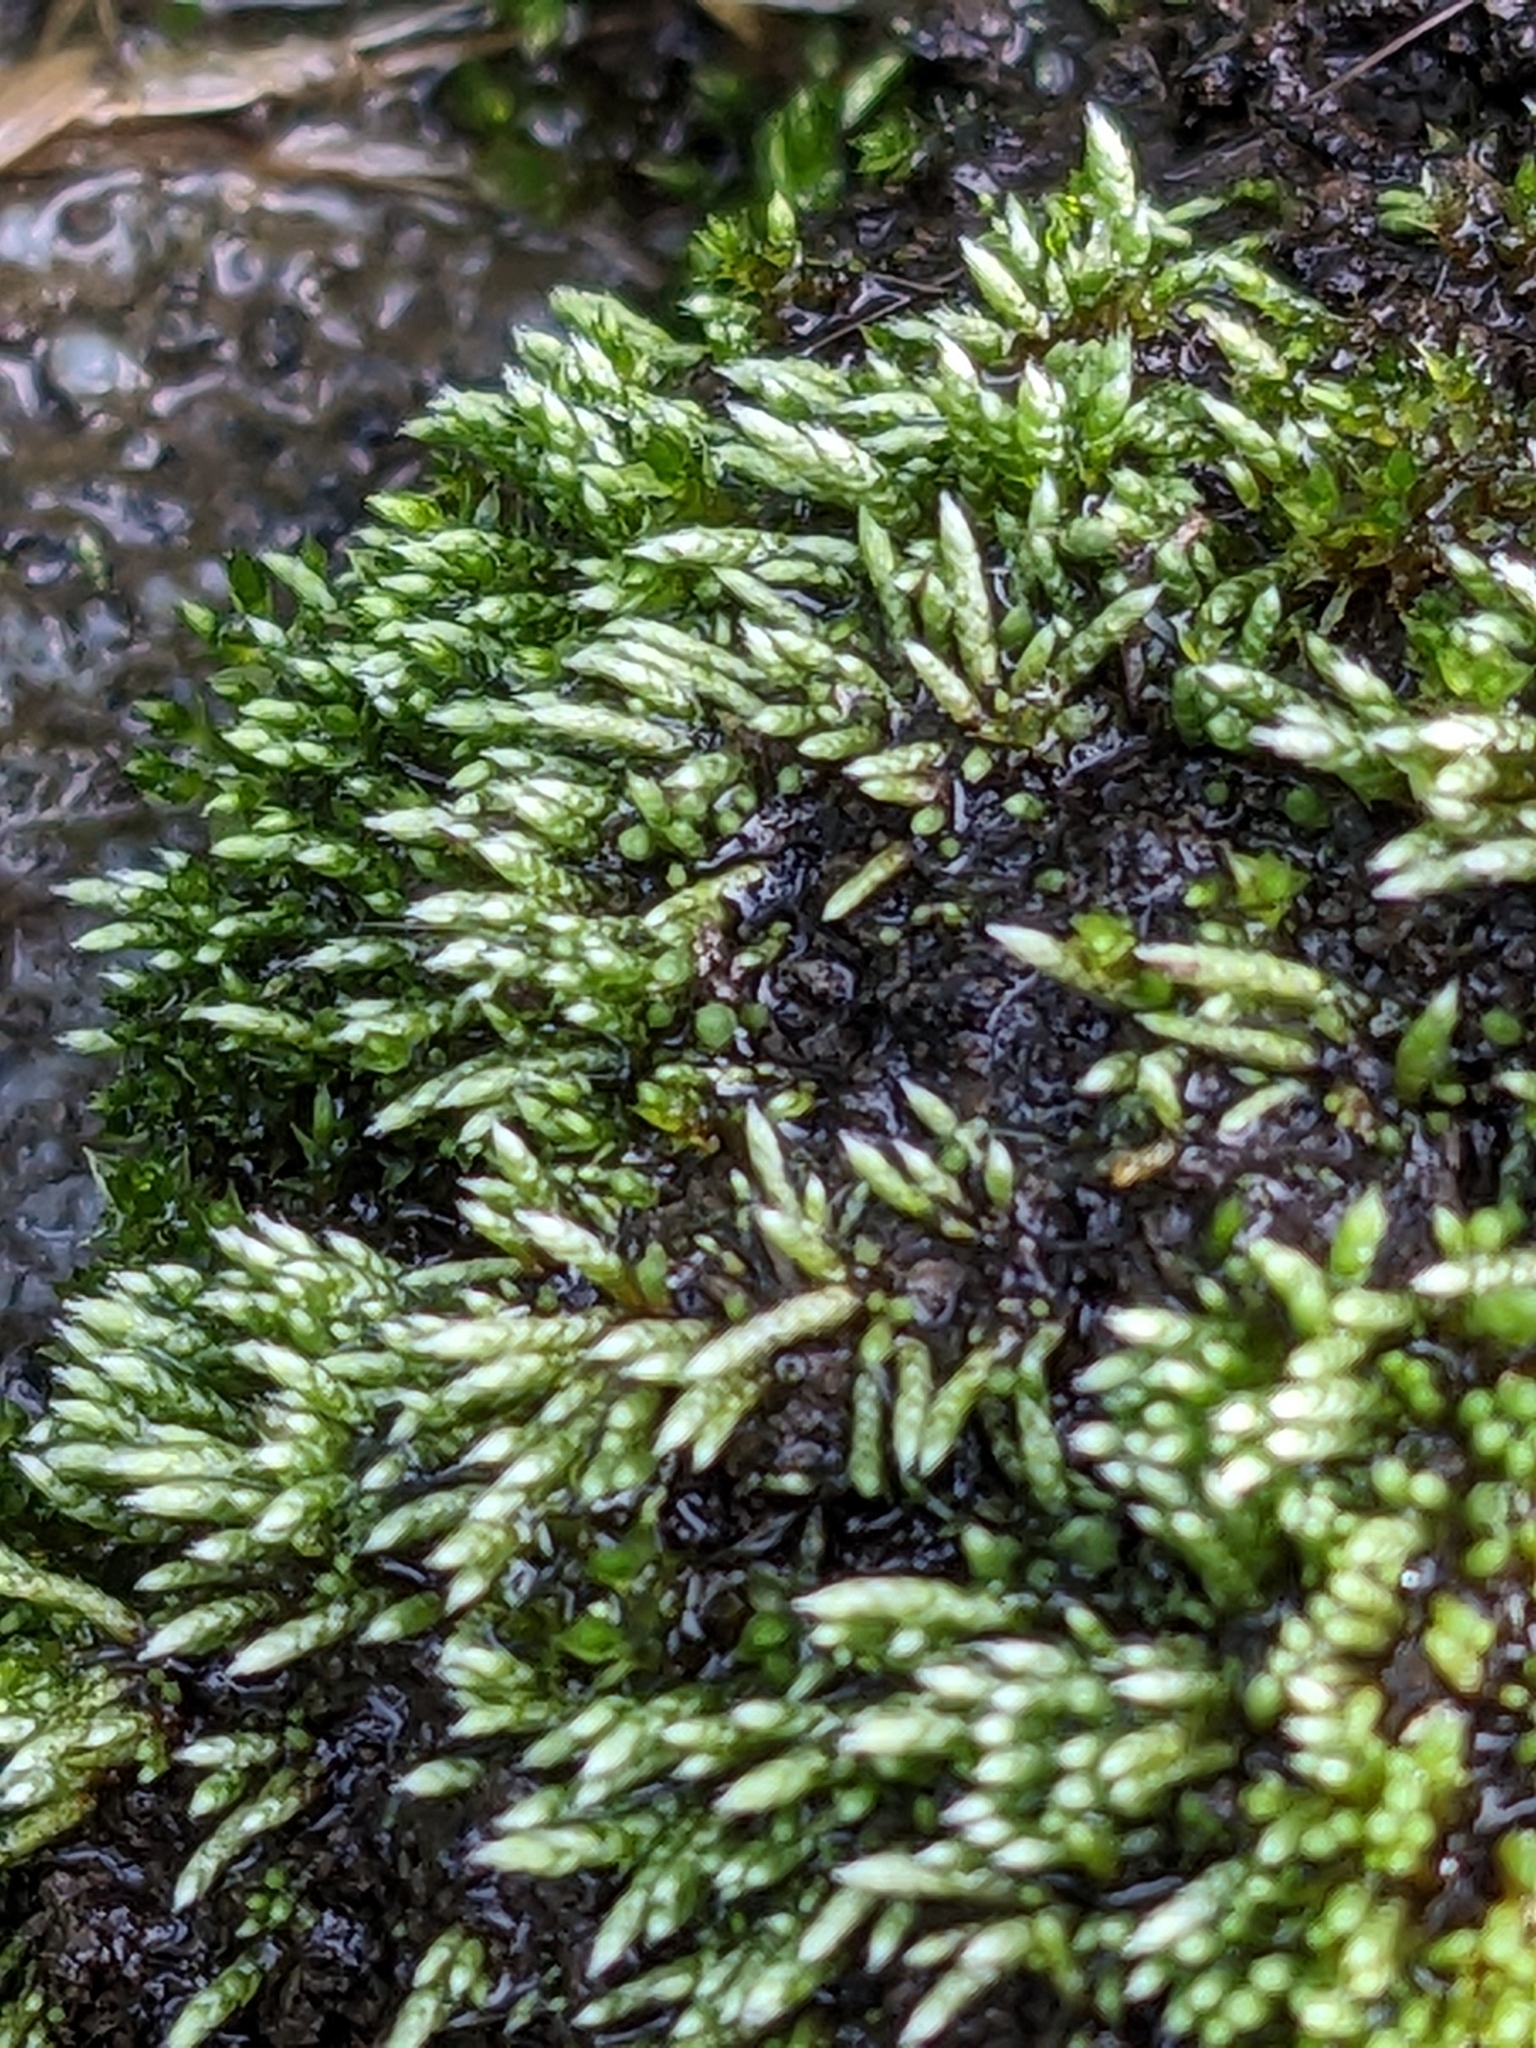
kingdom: Plantae
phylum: Bryophyta
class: Bryopsida
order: Bryales
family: Bryaceae
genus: Bryum
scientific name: Bryum argenteum
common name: Silver-moss
